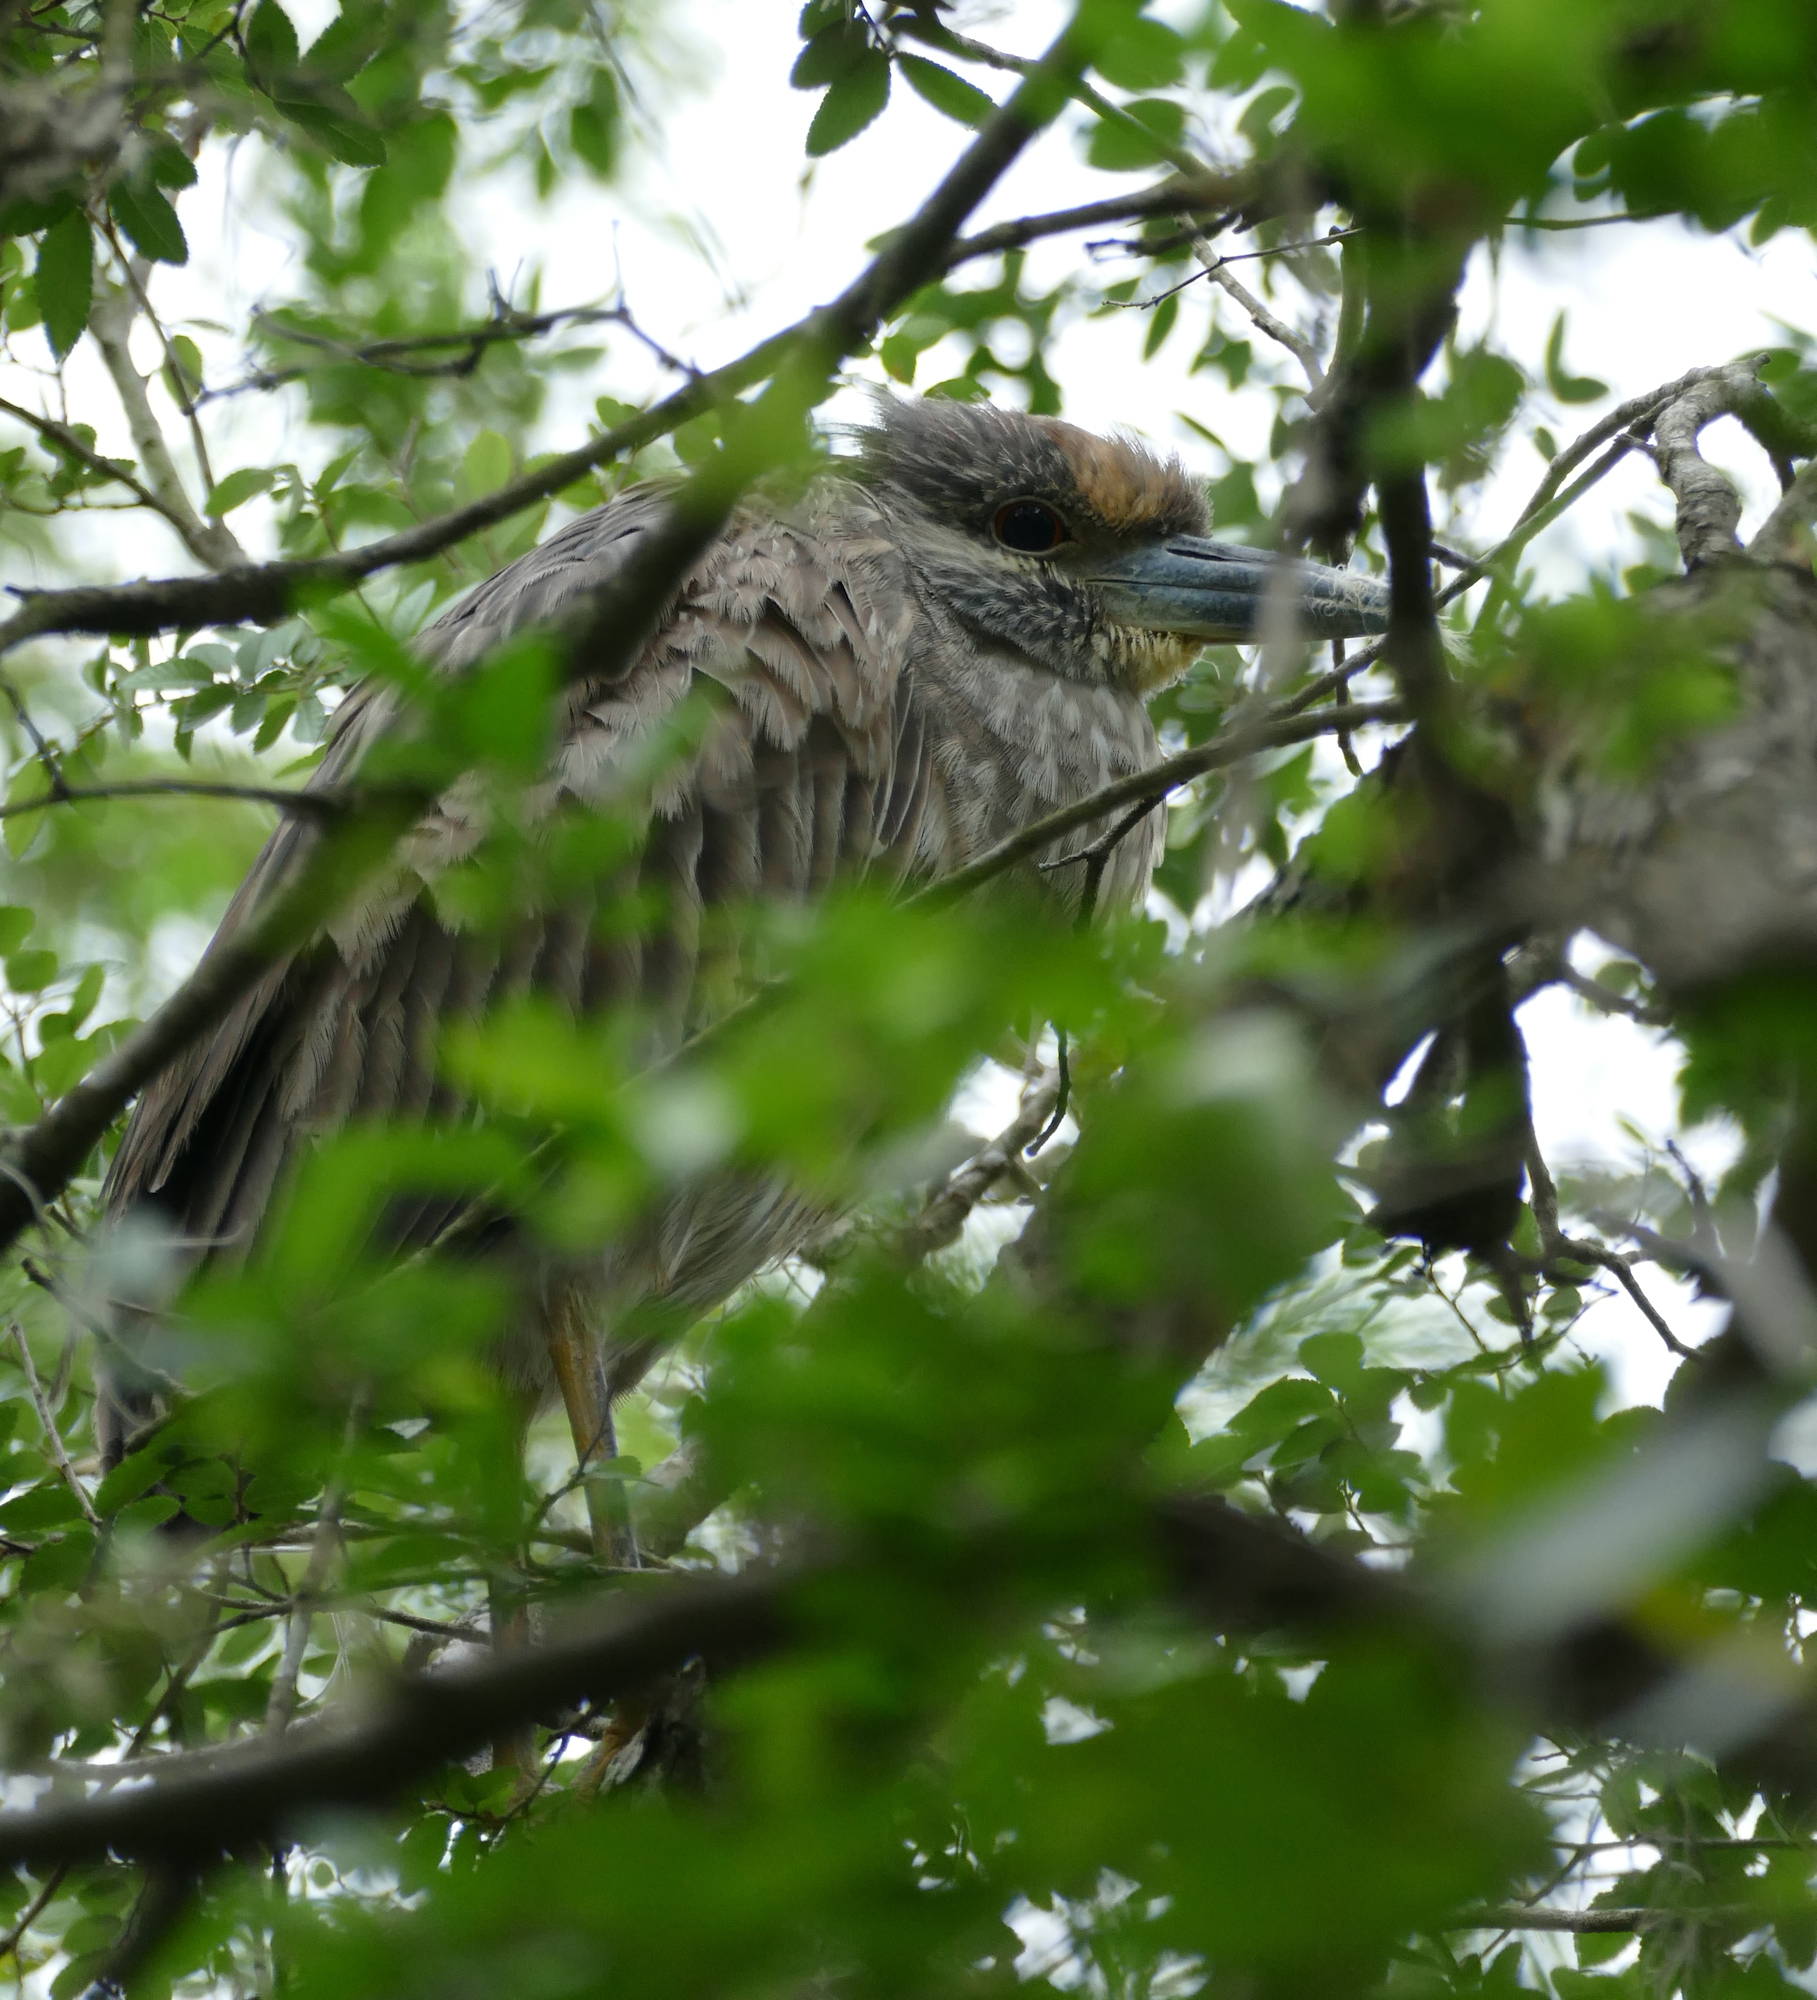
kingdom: Animalia
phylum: Chordata
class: Aves
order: Pelecaniformes
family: Ardeidae
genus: Nyctanassa
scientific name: Nyctanassa violacea
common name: Yellow-crowned night heron
